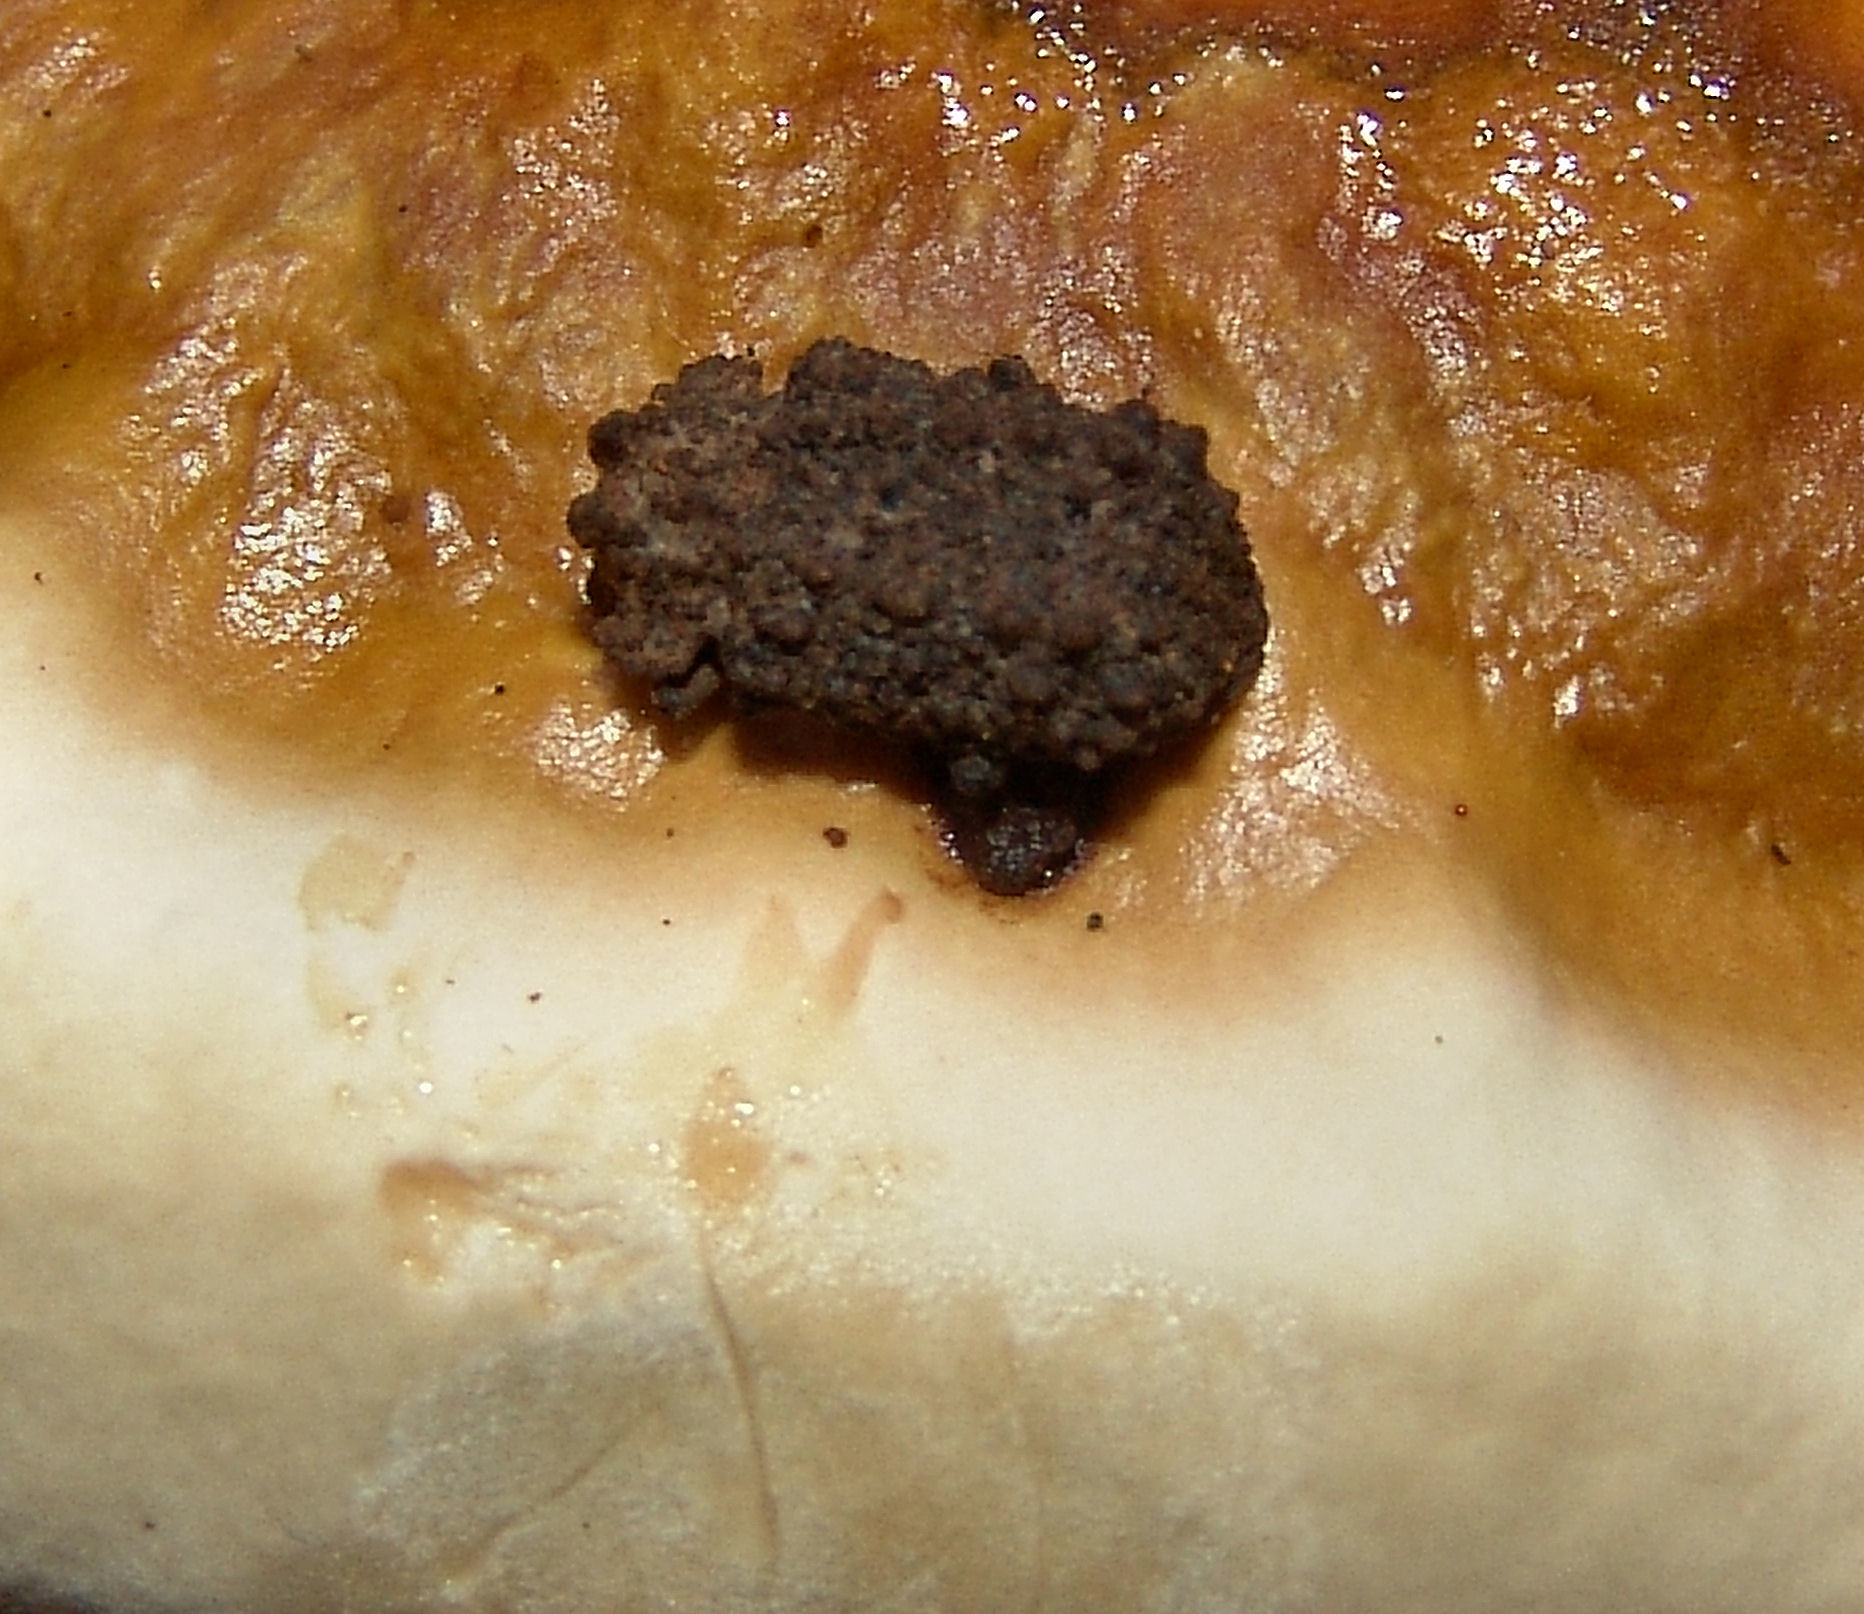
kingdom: Animalia
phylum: Arthropoda
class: Insecta
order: Coleoptera
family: Tenebrionidae
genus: Gnatocerus
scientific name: Gnatocerus cornutus
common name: Broad-horned flour beetle
